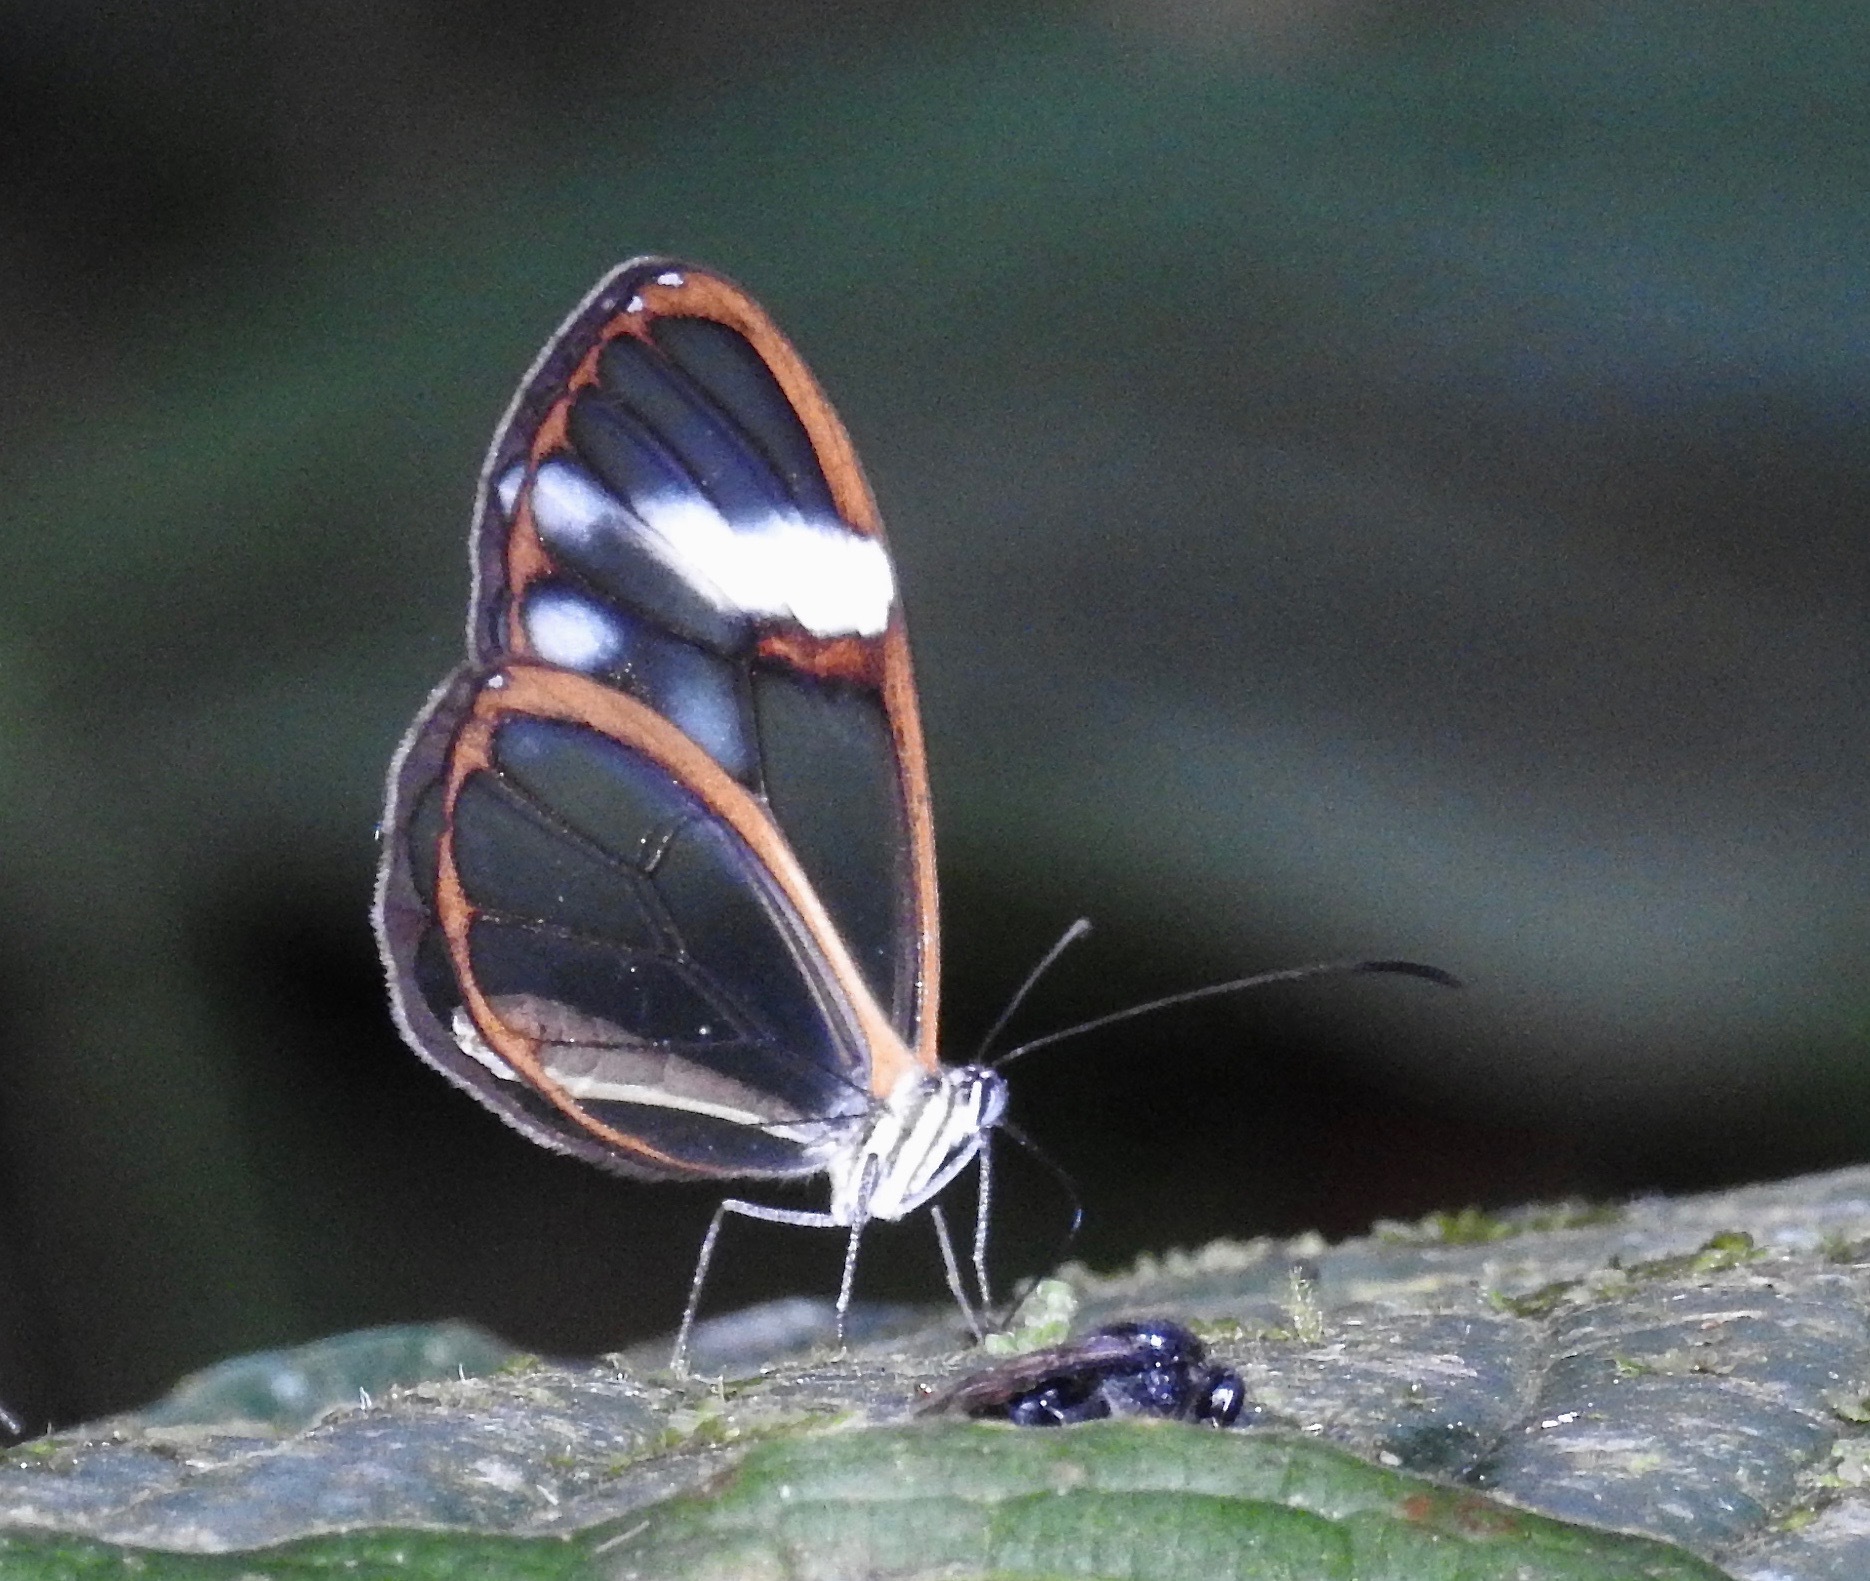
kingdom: Animalia
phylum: Arthropoda
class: Insecta
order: Lepidoptera
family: Nymphalidae
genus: Hypomenitis
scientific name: Hypomenitis
